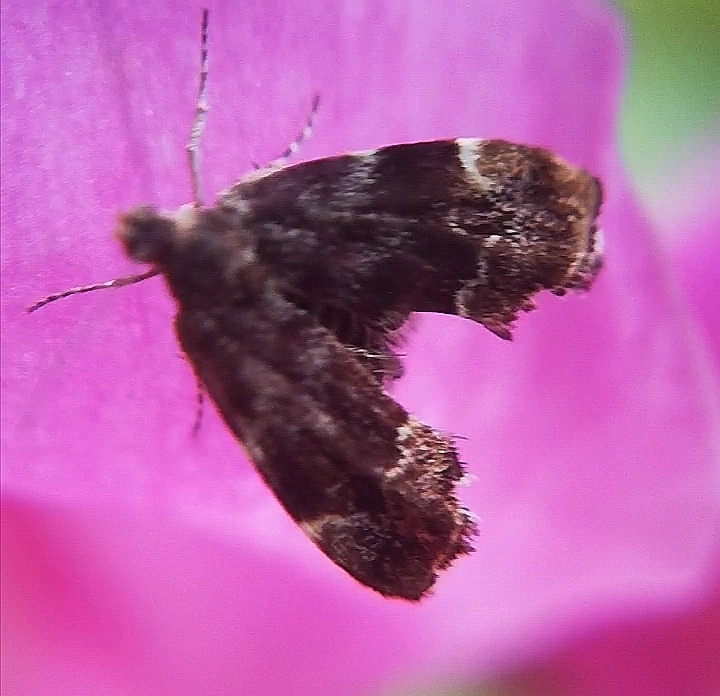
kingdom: Animalia
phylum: Arthropoda
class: Insecta
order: Lepidoptera
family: Choreutidae
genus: Anthophila
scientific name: Anthophila fabriciana
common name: Nettle-tap
